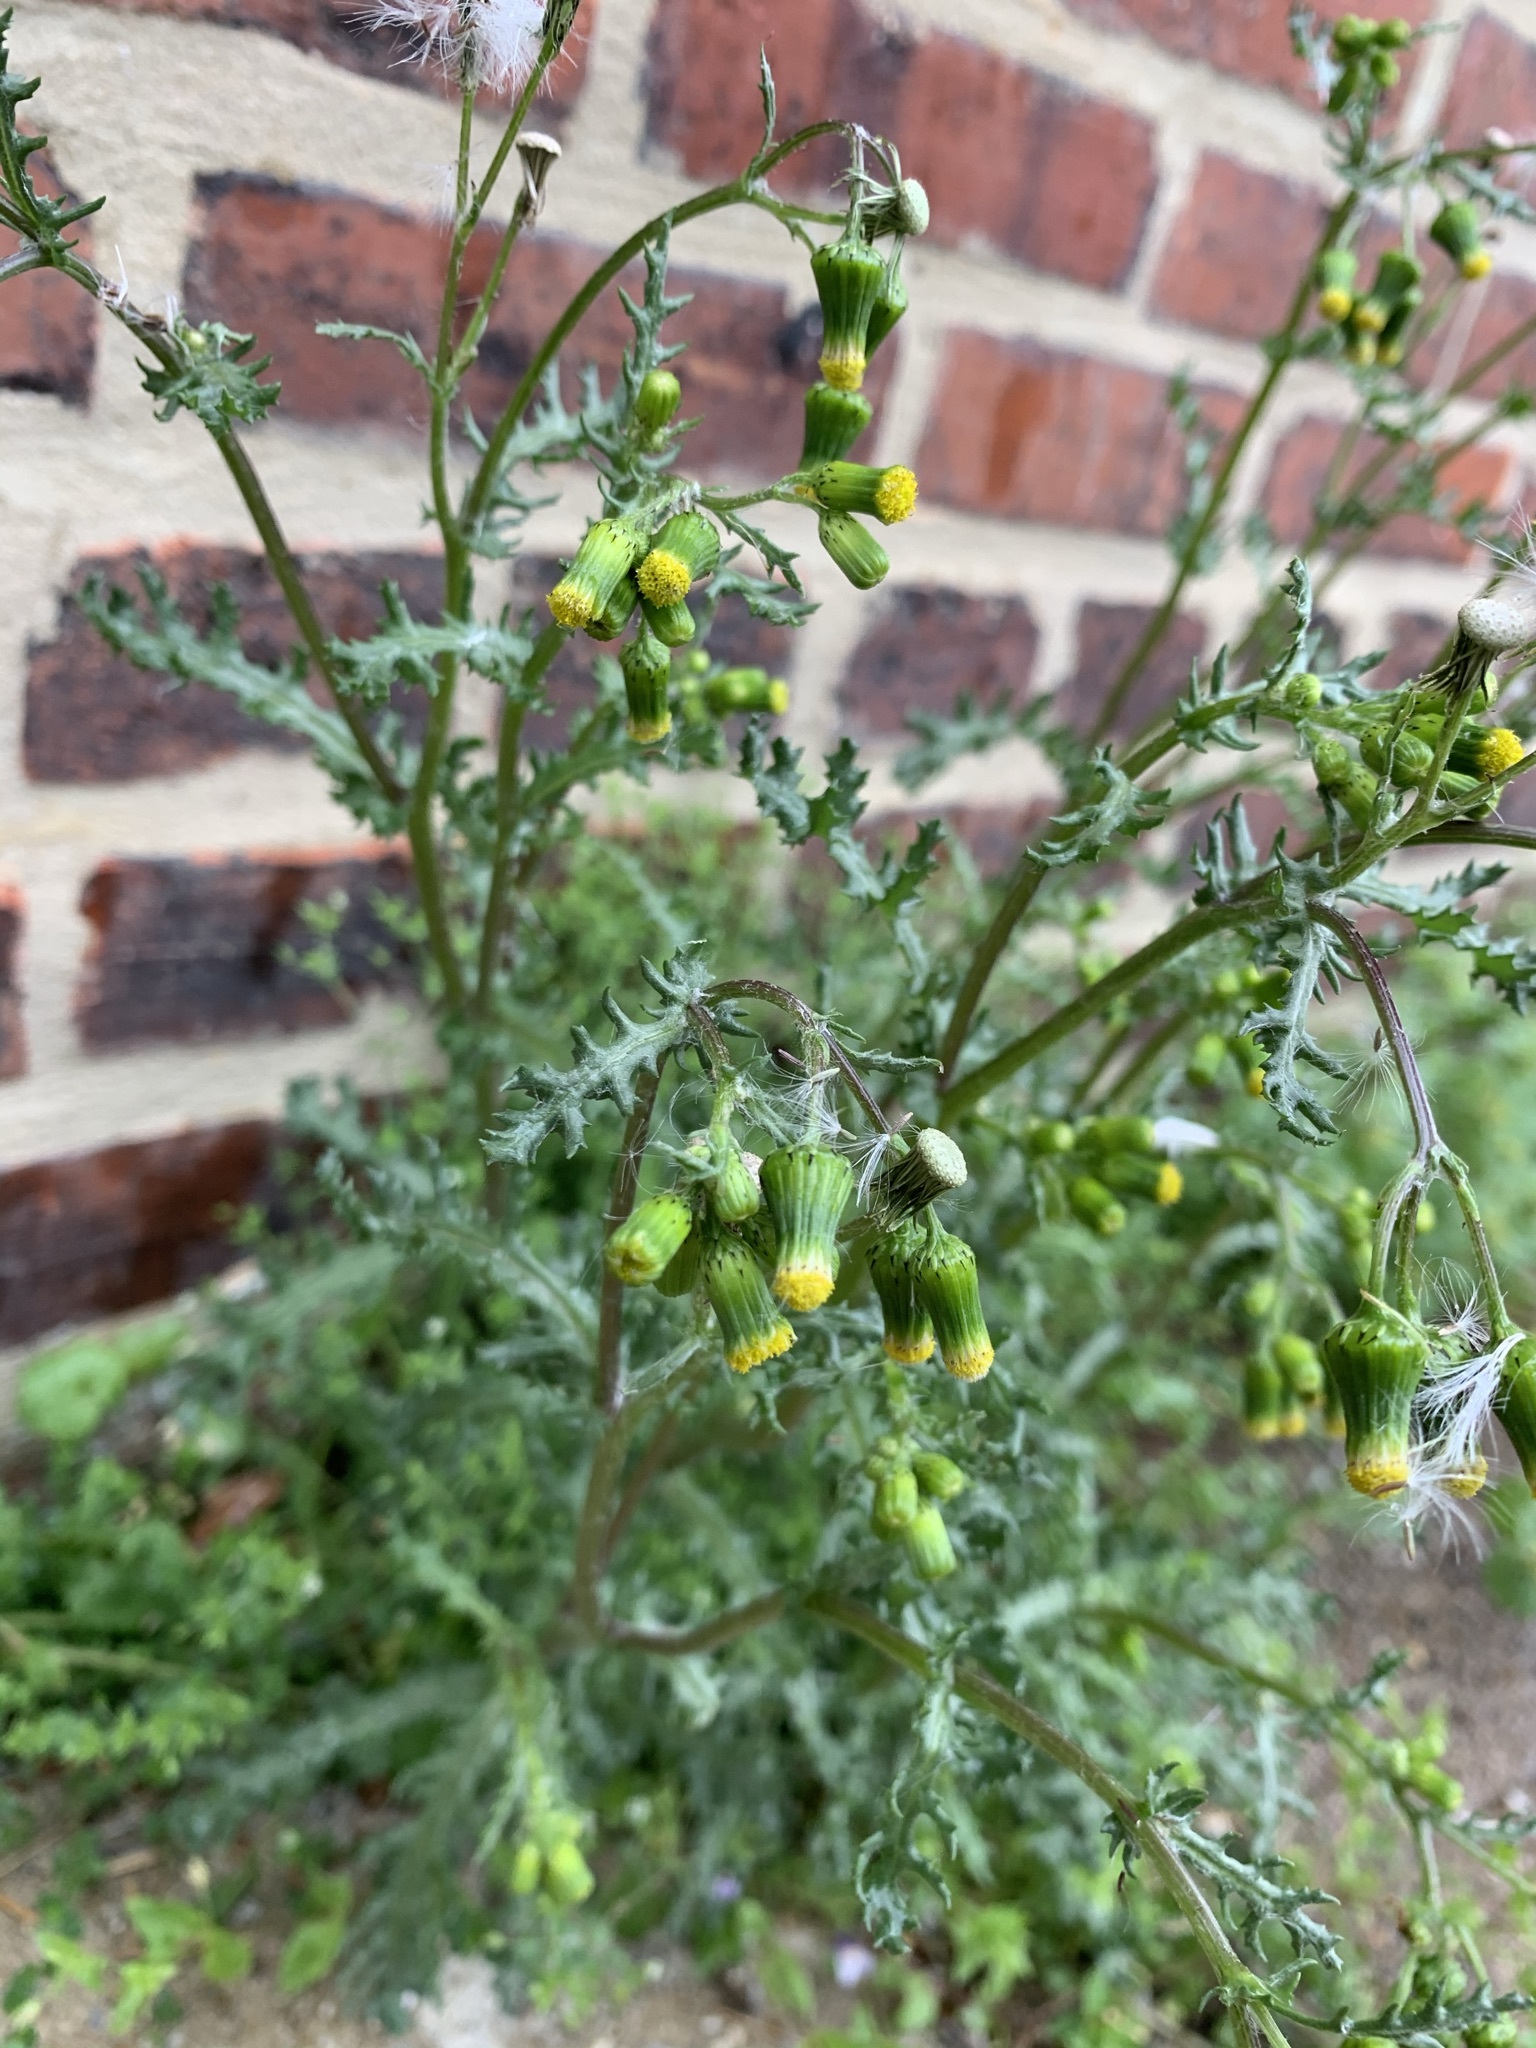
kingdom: Plantae
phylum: Tracheophyta
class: Magnoliopsida
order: Asterales
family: Asteraceae
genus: Senecio
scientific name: Senecio vulgaris
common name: Old-man-in-the-spring
